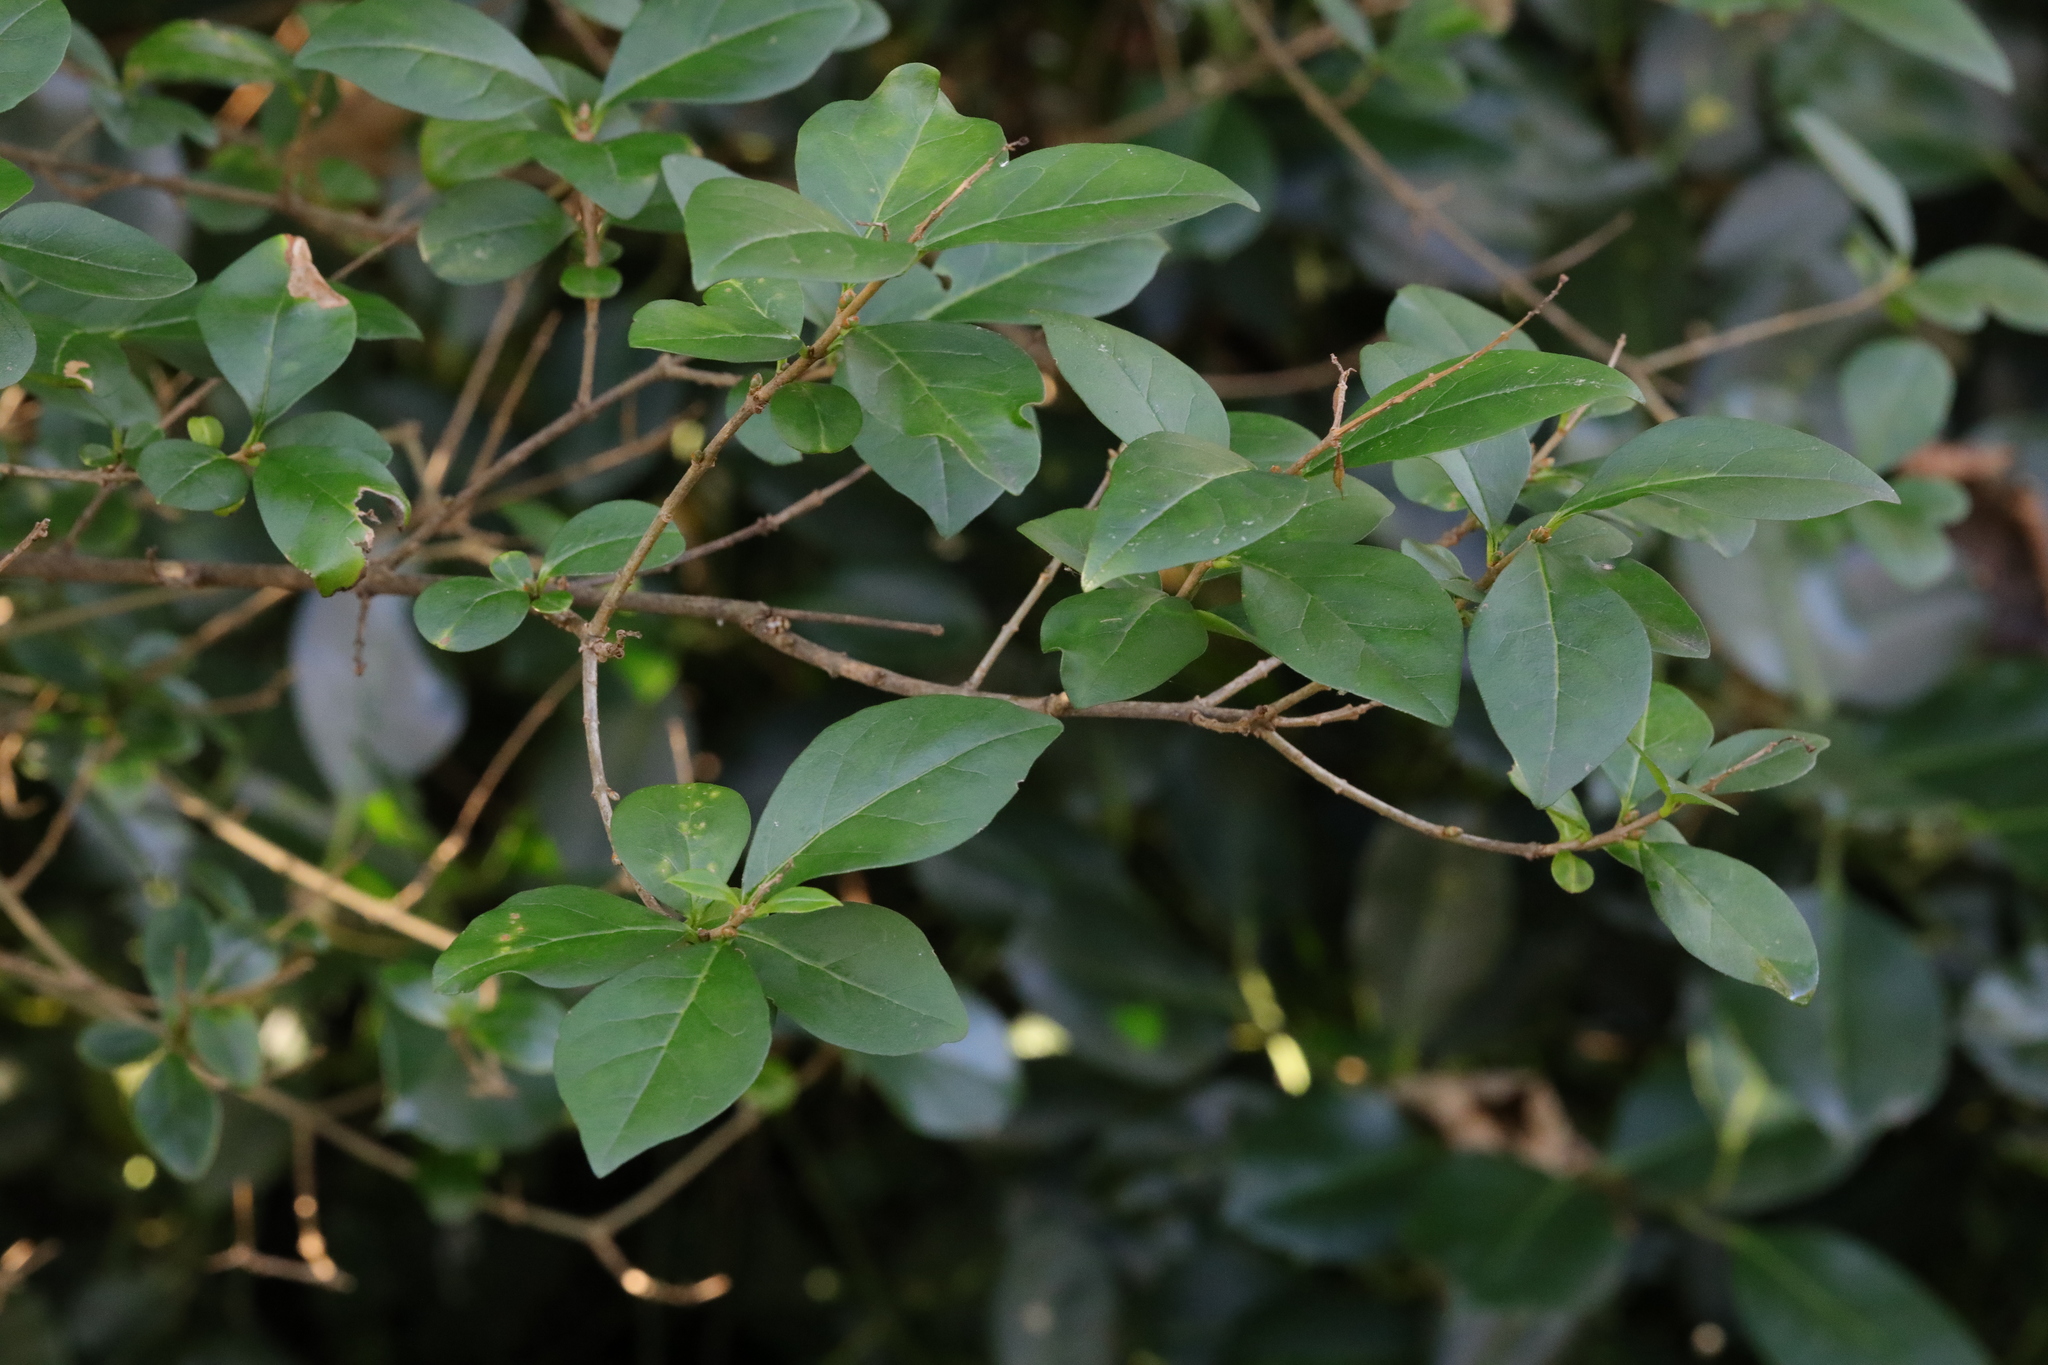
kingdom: Plantae
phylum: Tracheophyta
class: Magnoliopsida
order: Lamiales
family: Oleaceae
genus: Ligustrum
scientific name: Ligustrum ovalifolium
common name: California privet
